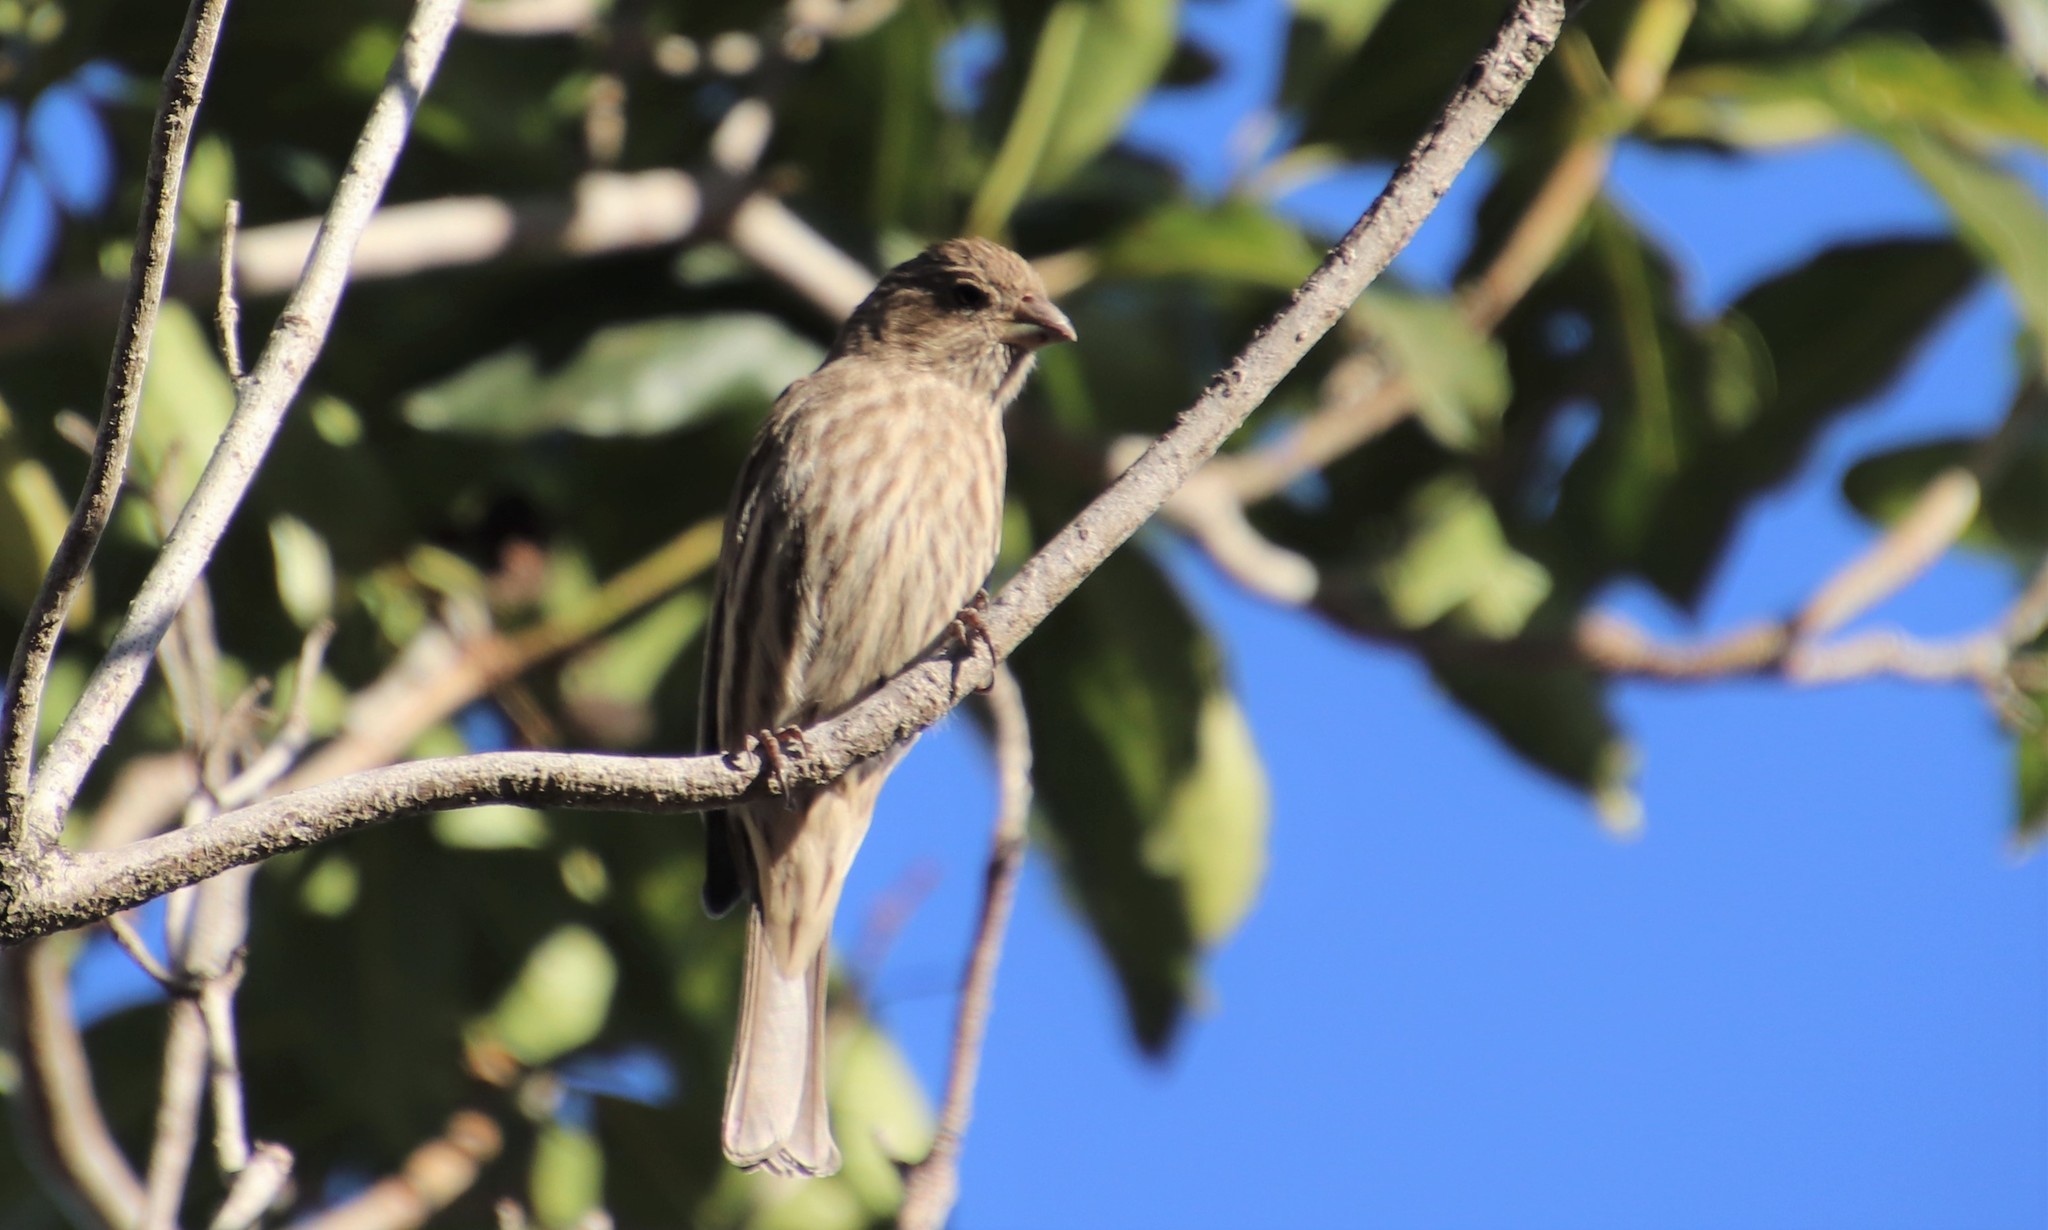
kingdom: Animalia
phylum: Chordata
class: Aves
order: Passeriformes
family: Fringillidae
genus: Haemorhous
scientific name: Haemorhous mexicanus
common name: House finch
